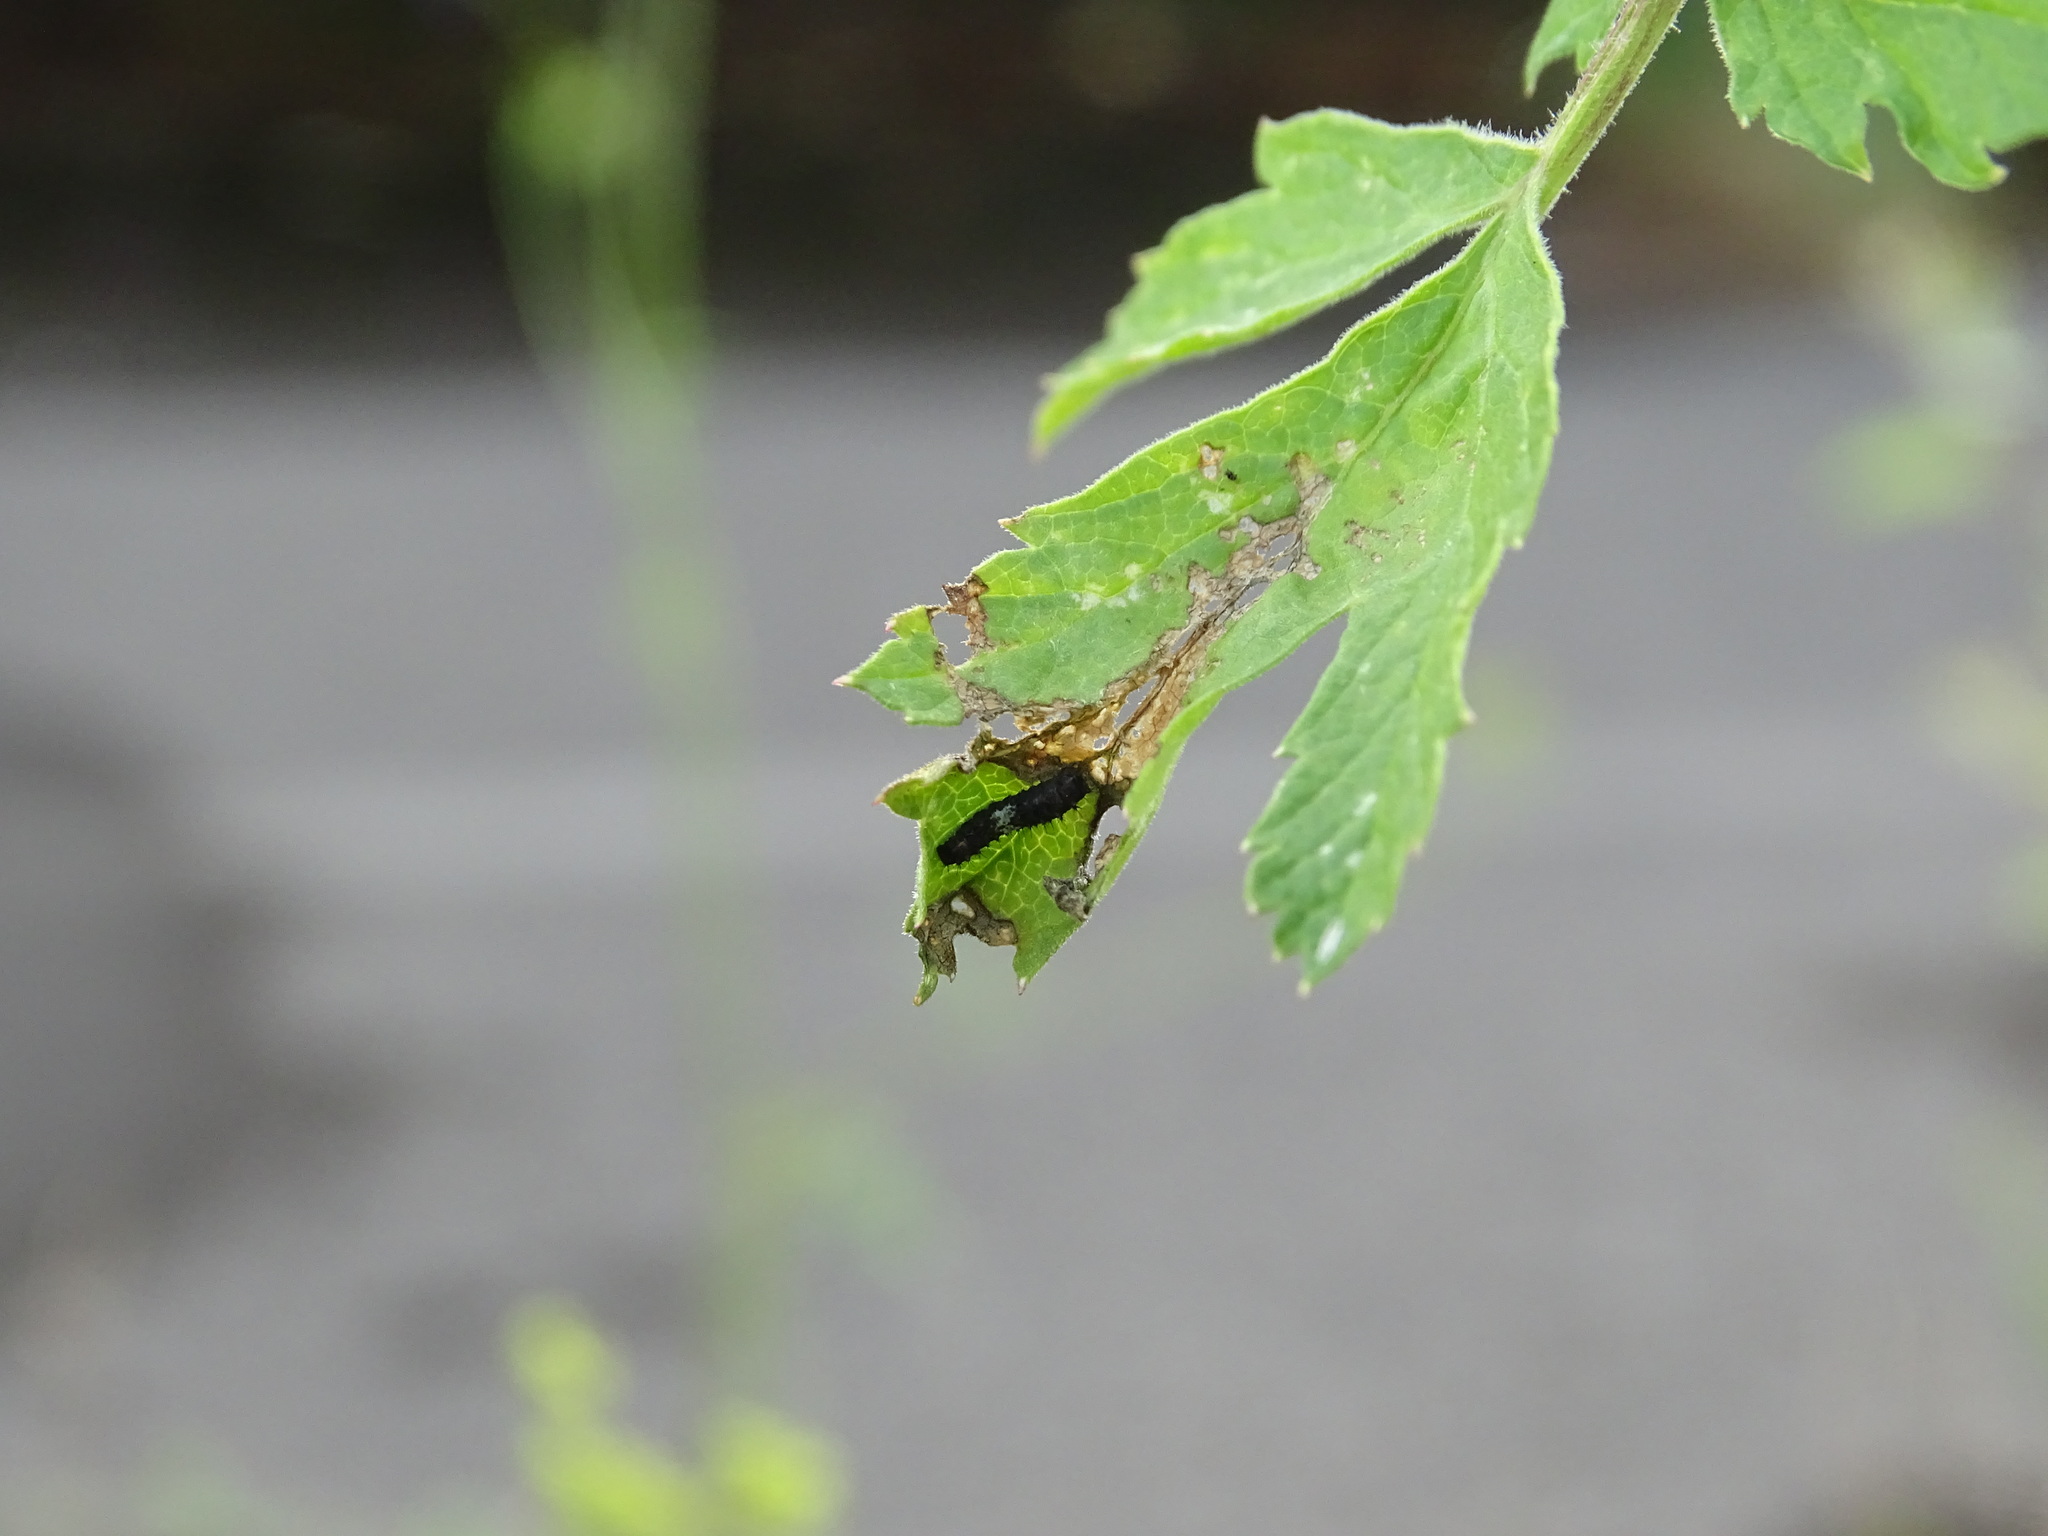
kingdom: Animalia
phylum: Arthropoda
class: Insecta
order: Lepidoptera
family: Papilionidae
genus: Papilio
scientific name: Papilio machaon
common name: Swallowtail
